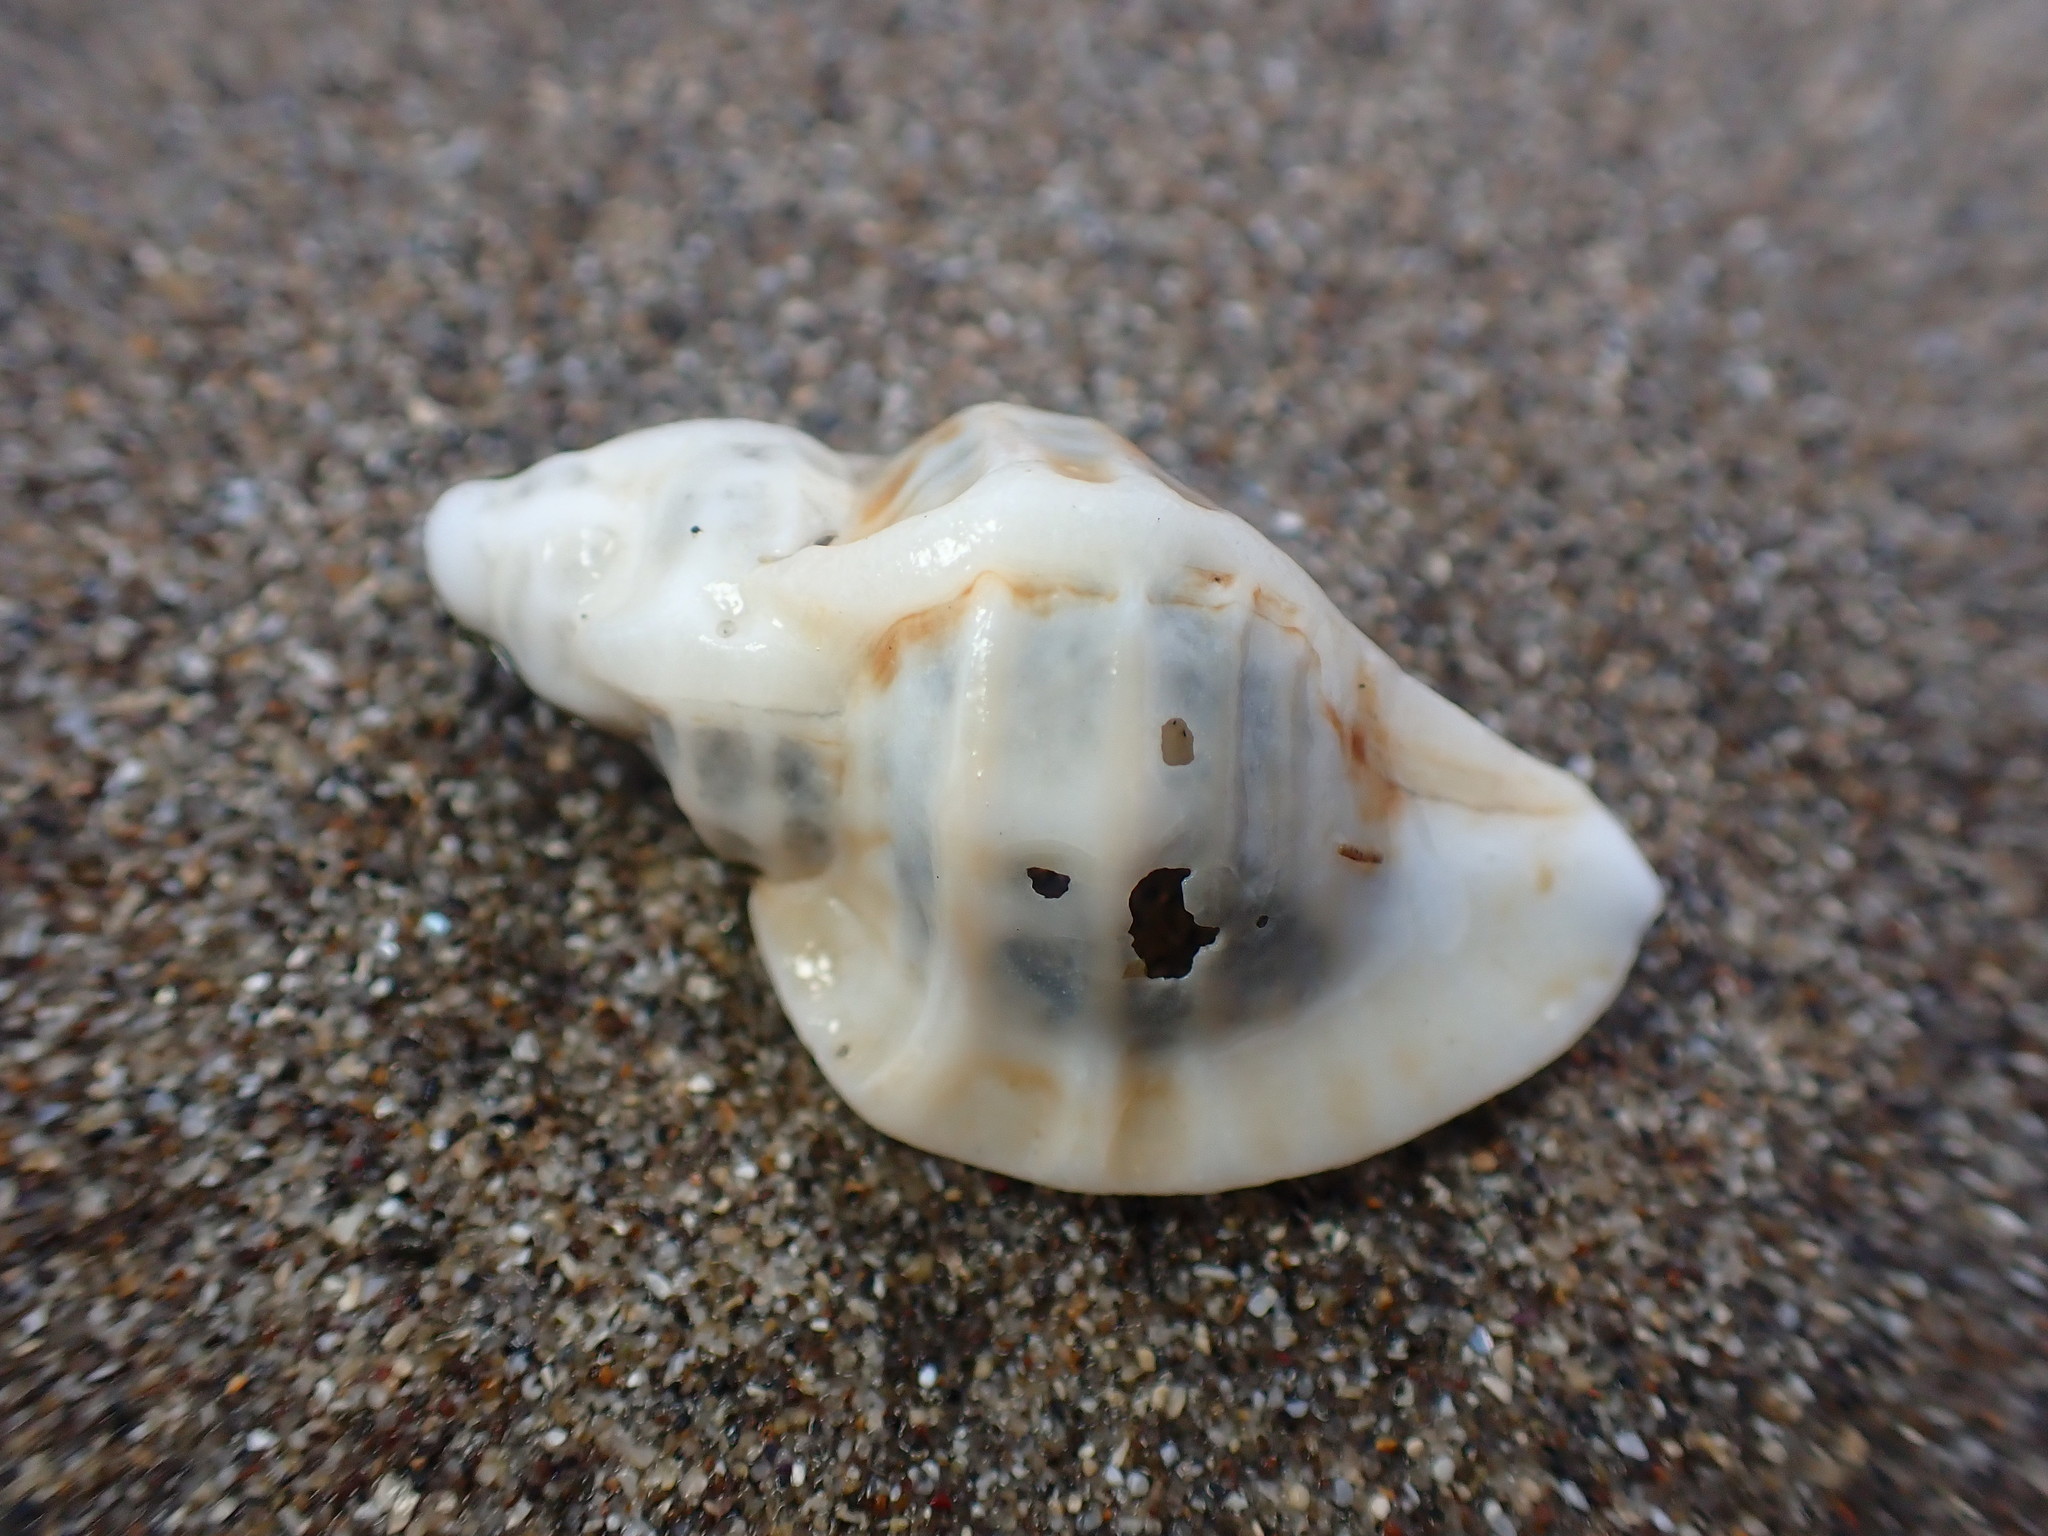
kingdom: Animalia
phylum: Mollusca
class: Gastropoda
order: Neogastropoda
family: Muricidae
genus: Ceratostoma
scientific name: Ceratostoma foliatum
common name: Foliate thorn purpura
